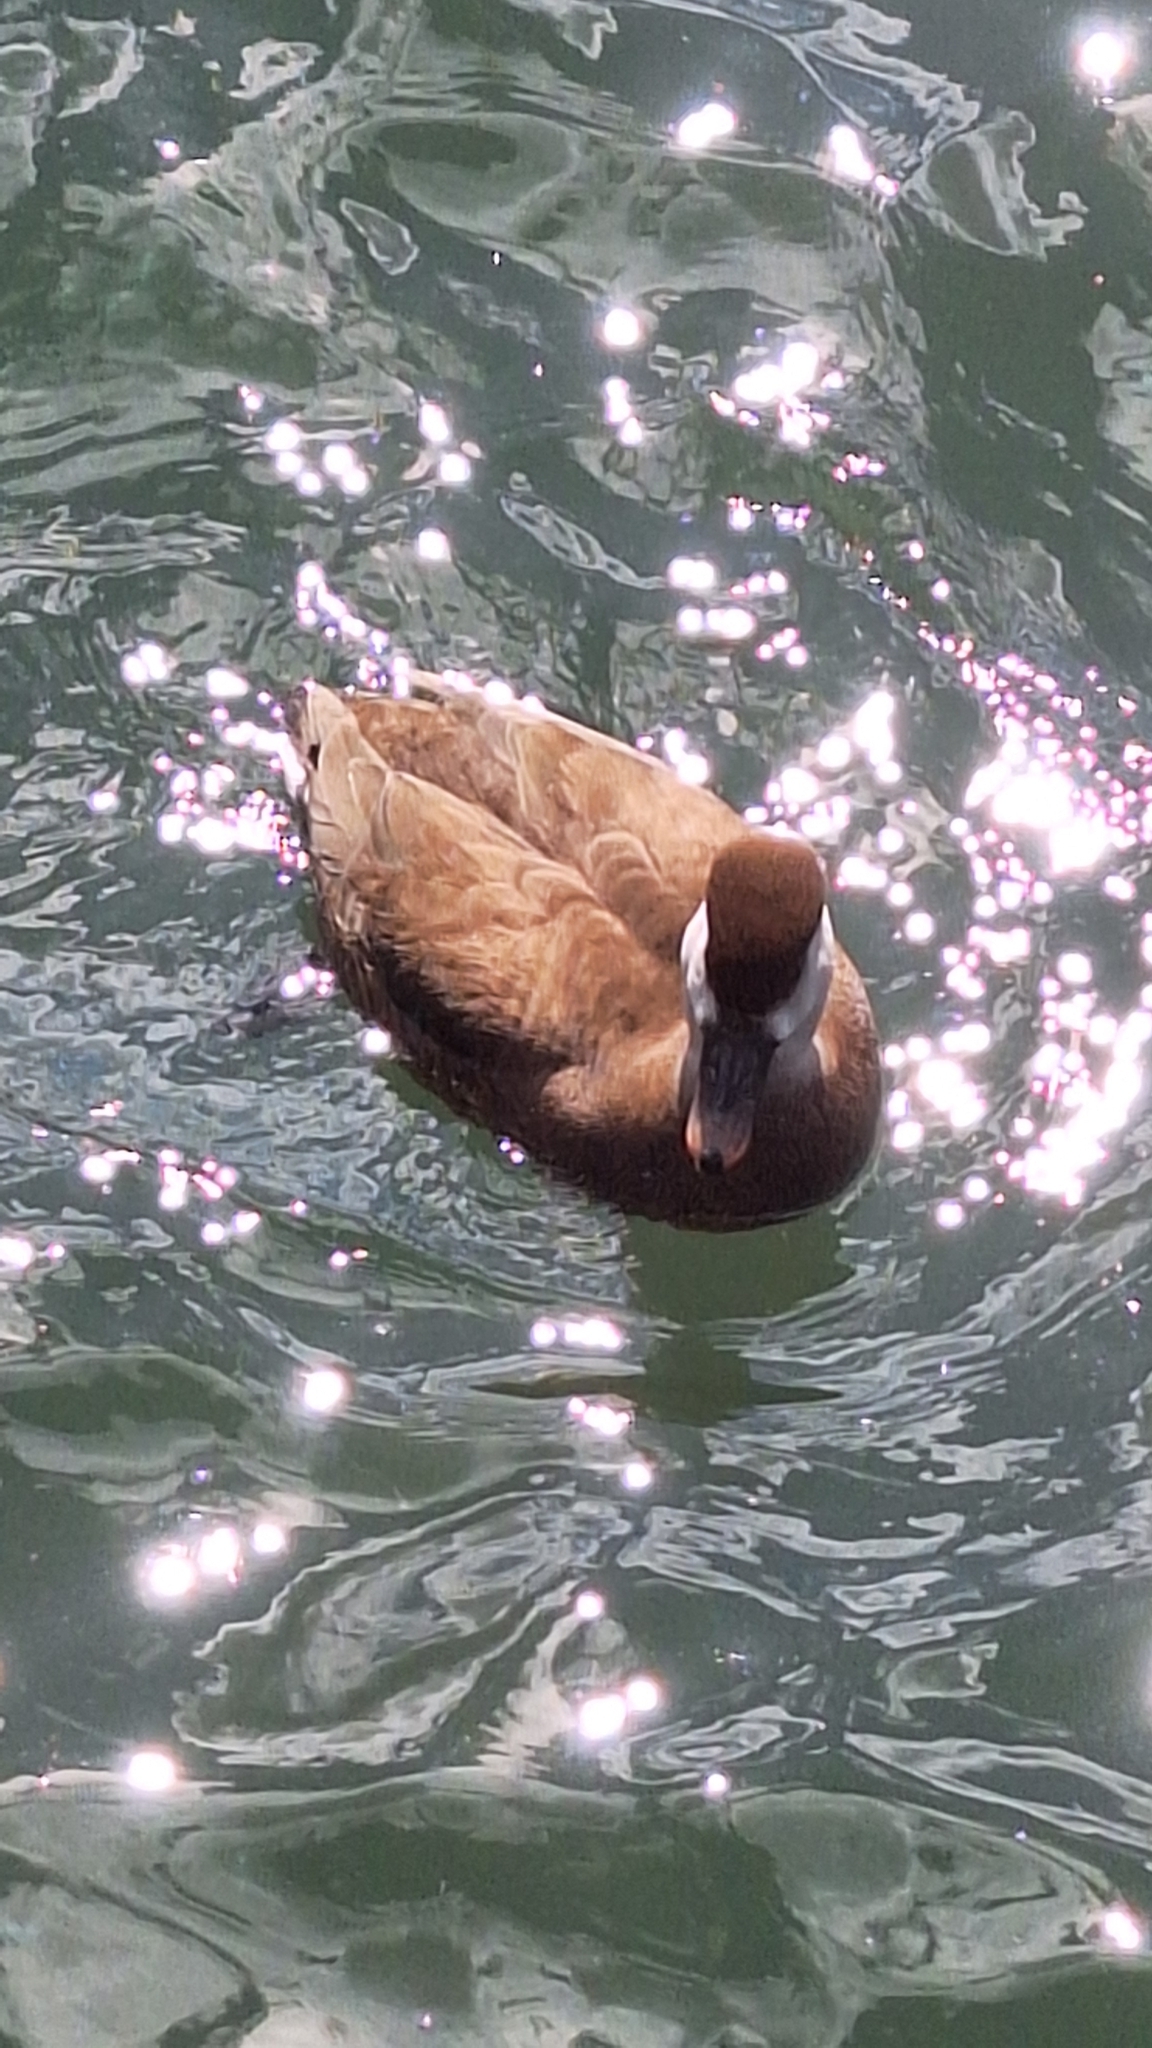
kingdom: Animalia
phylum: Chordata
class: Aves
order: Anseriformes
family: Anatidae
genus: Netta
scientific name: Netta rufina
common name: Red-crested pochard
